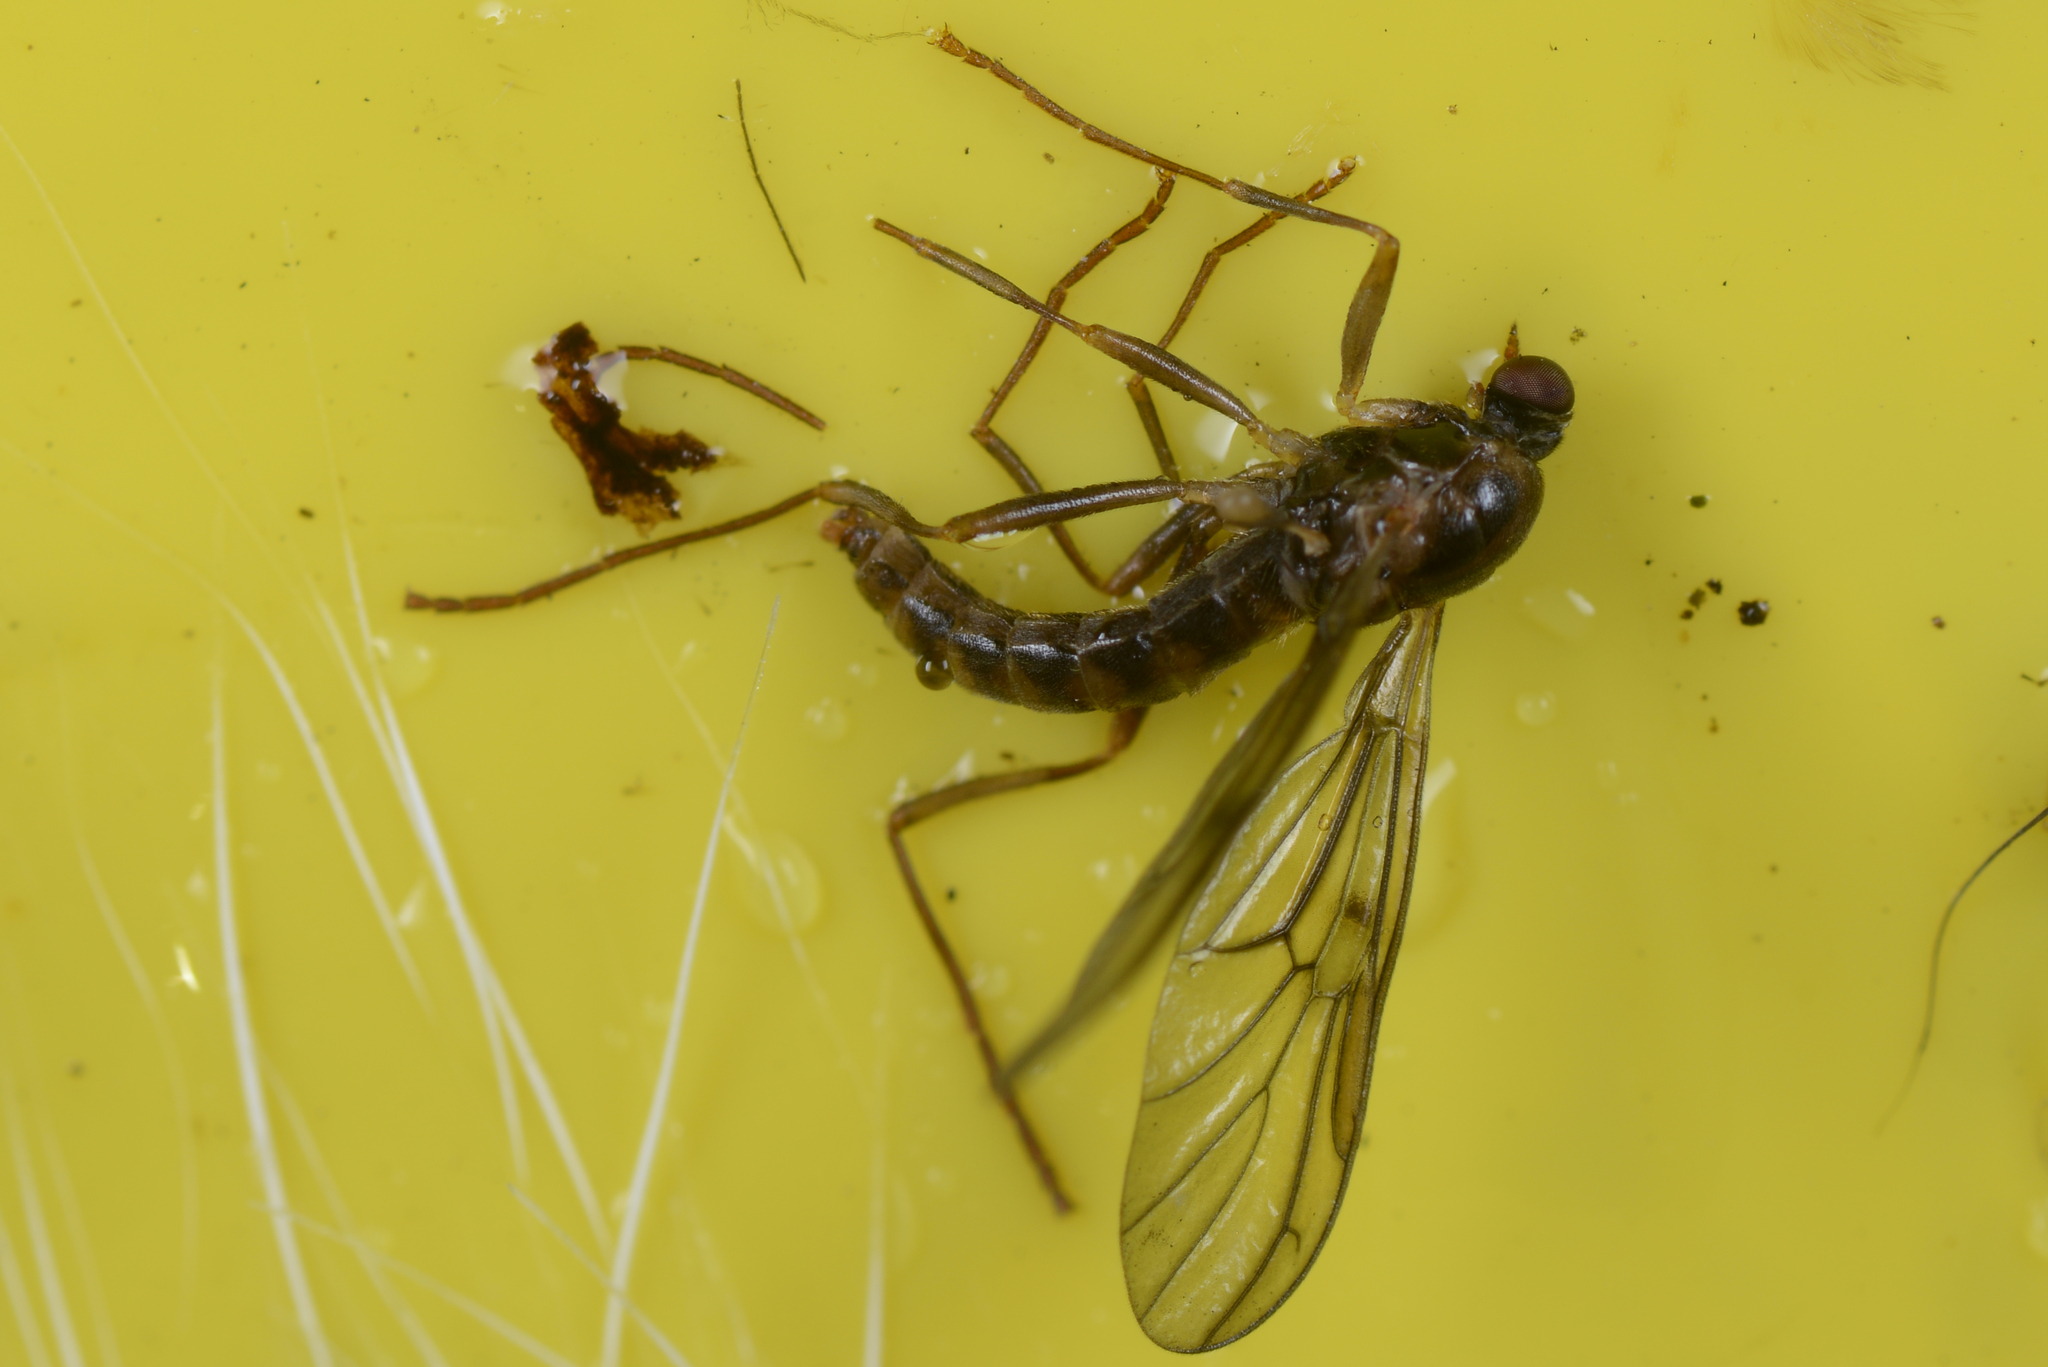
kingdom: Animalia
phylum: Arthropoda
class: Insecta
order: Diptera
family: Stratiomyidae
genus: Boreoides
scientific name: Boreoides tasmaniensis
